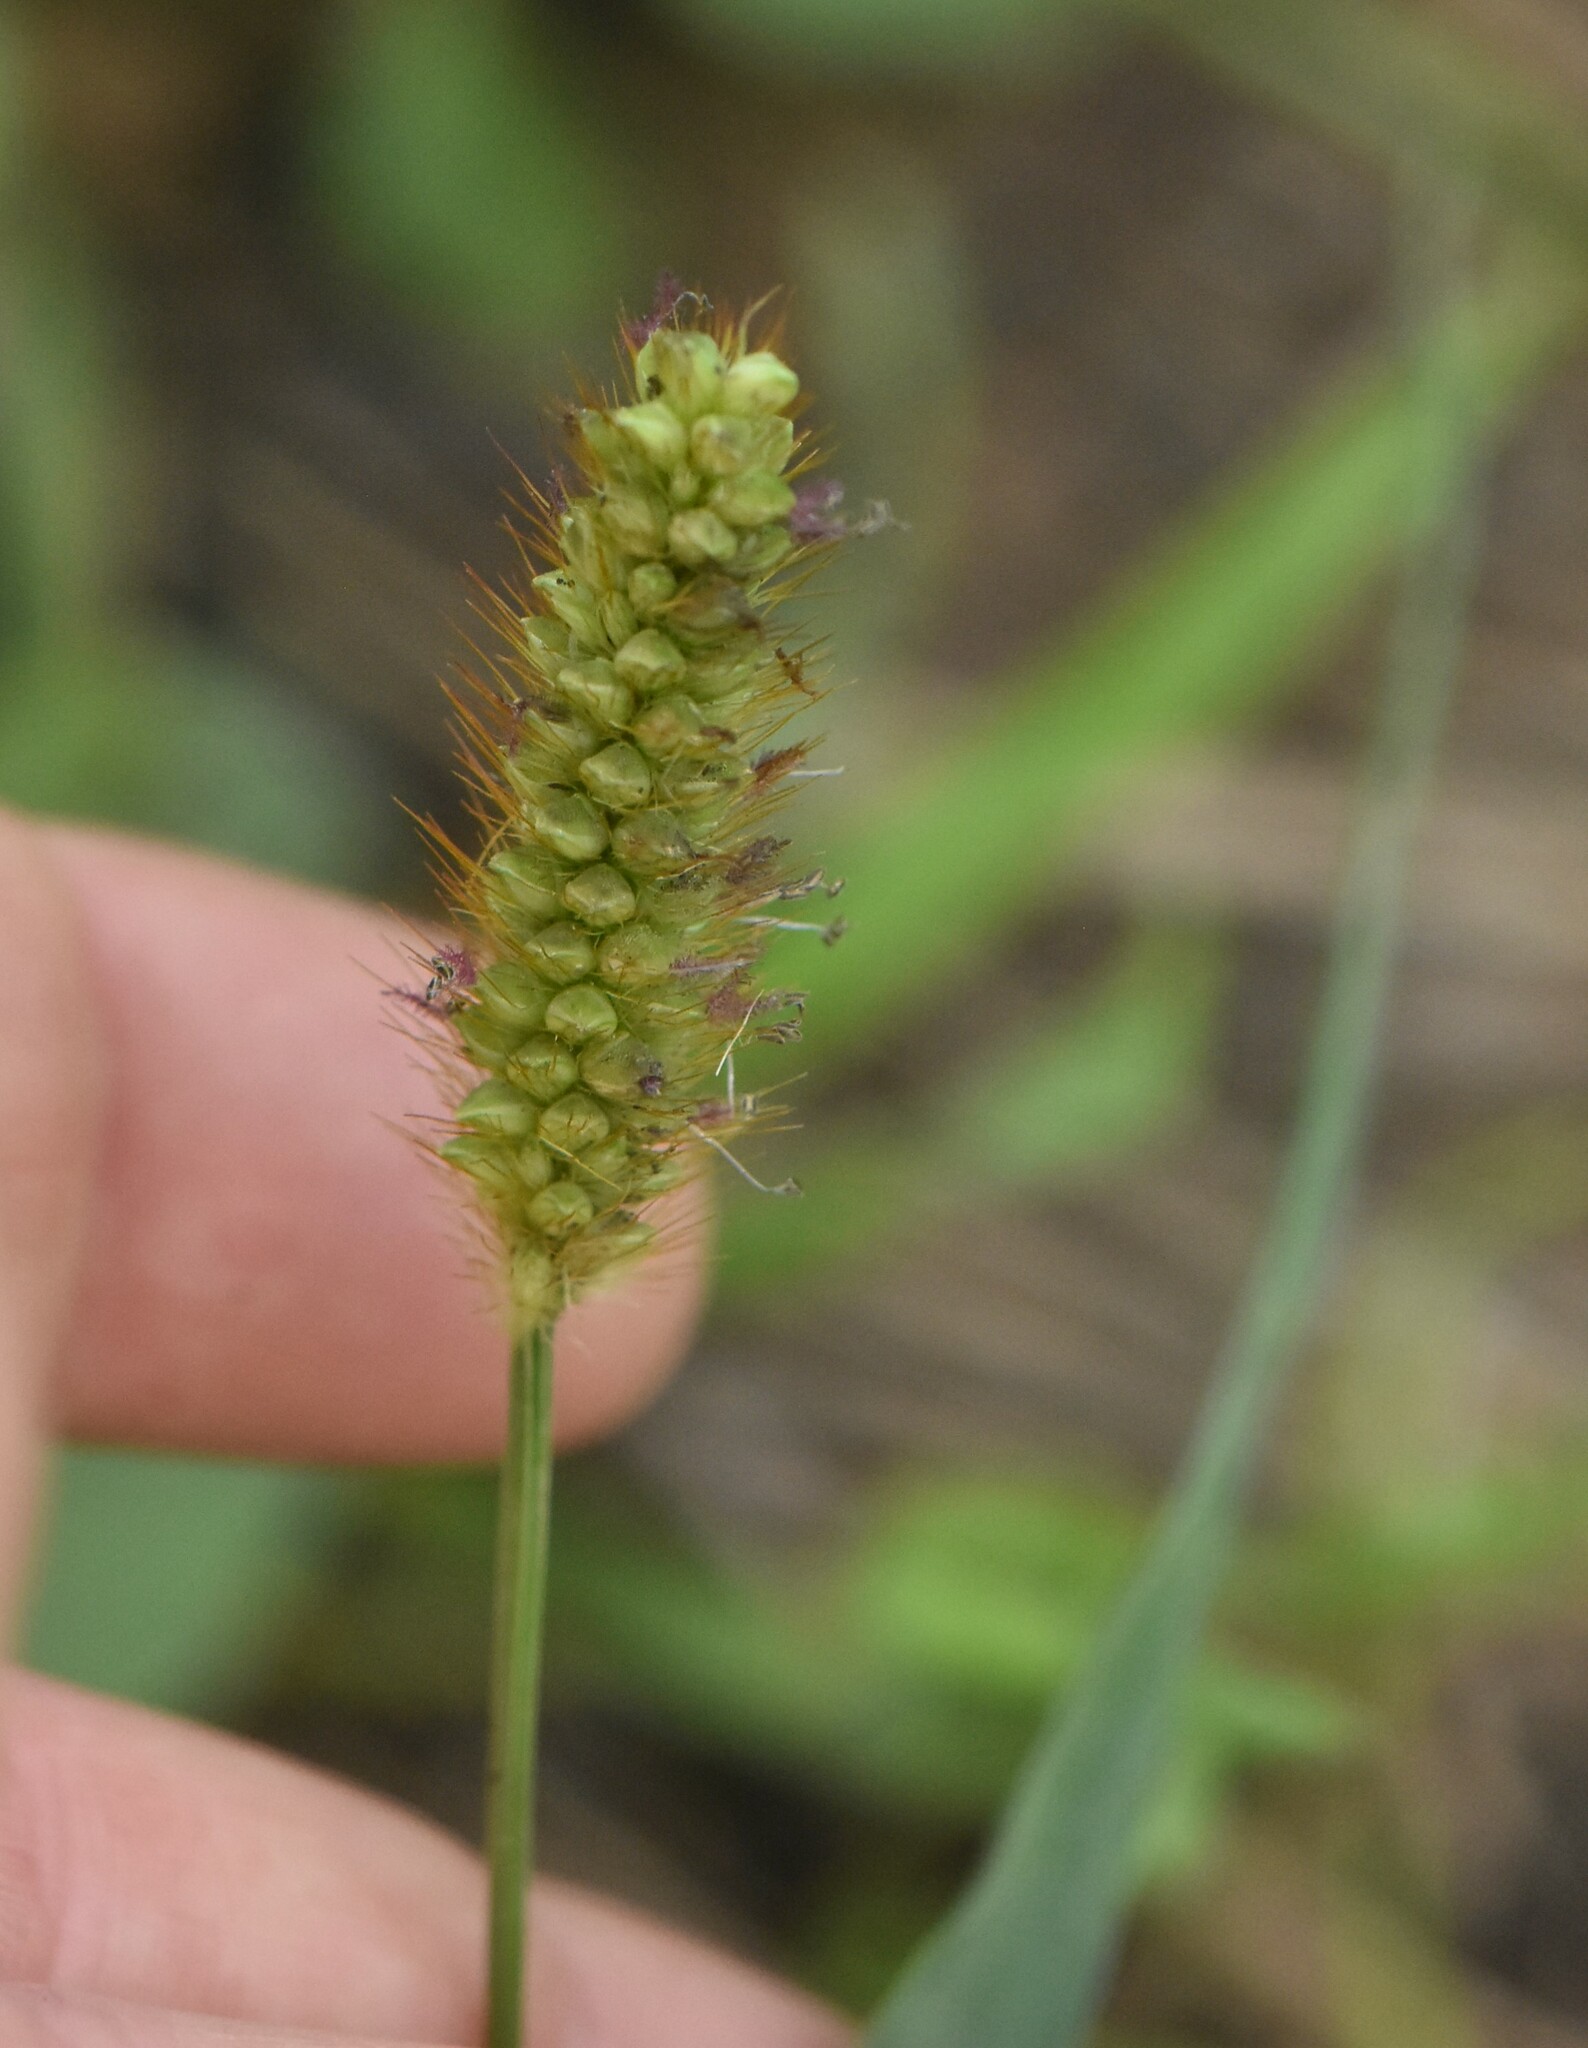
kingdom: Plantae
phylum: Tracheophyta
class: Liliopsida
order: Poales
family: Poaceae
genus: Setaria
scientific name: Setaria pumila
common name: Yellow bristle-grass
